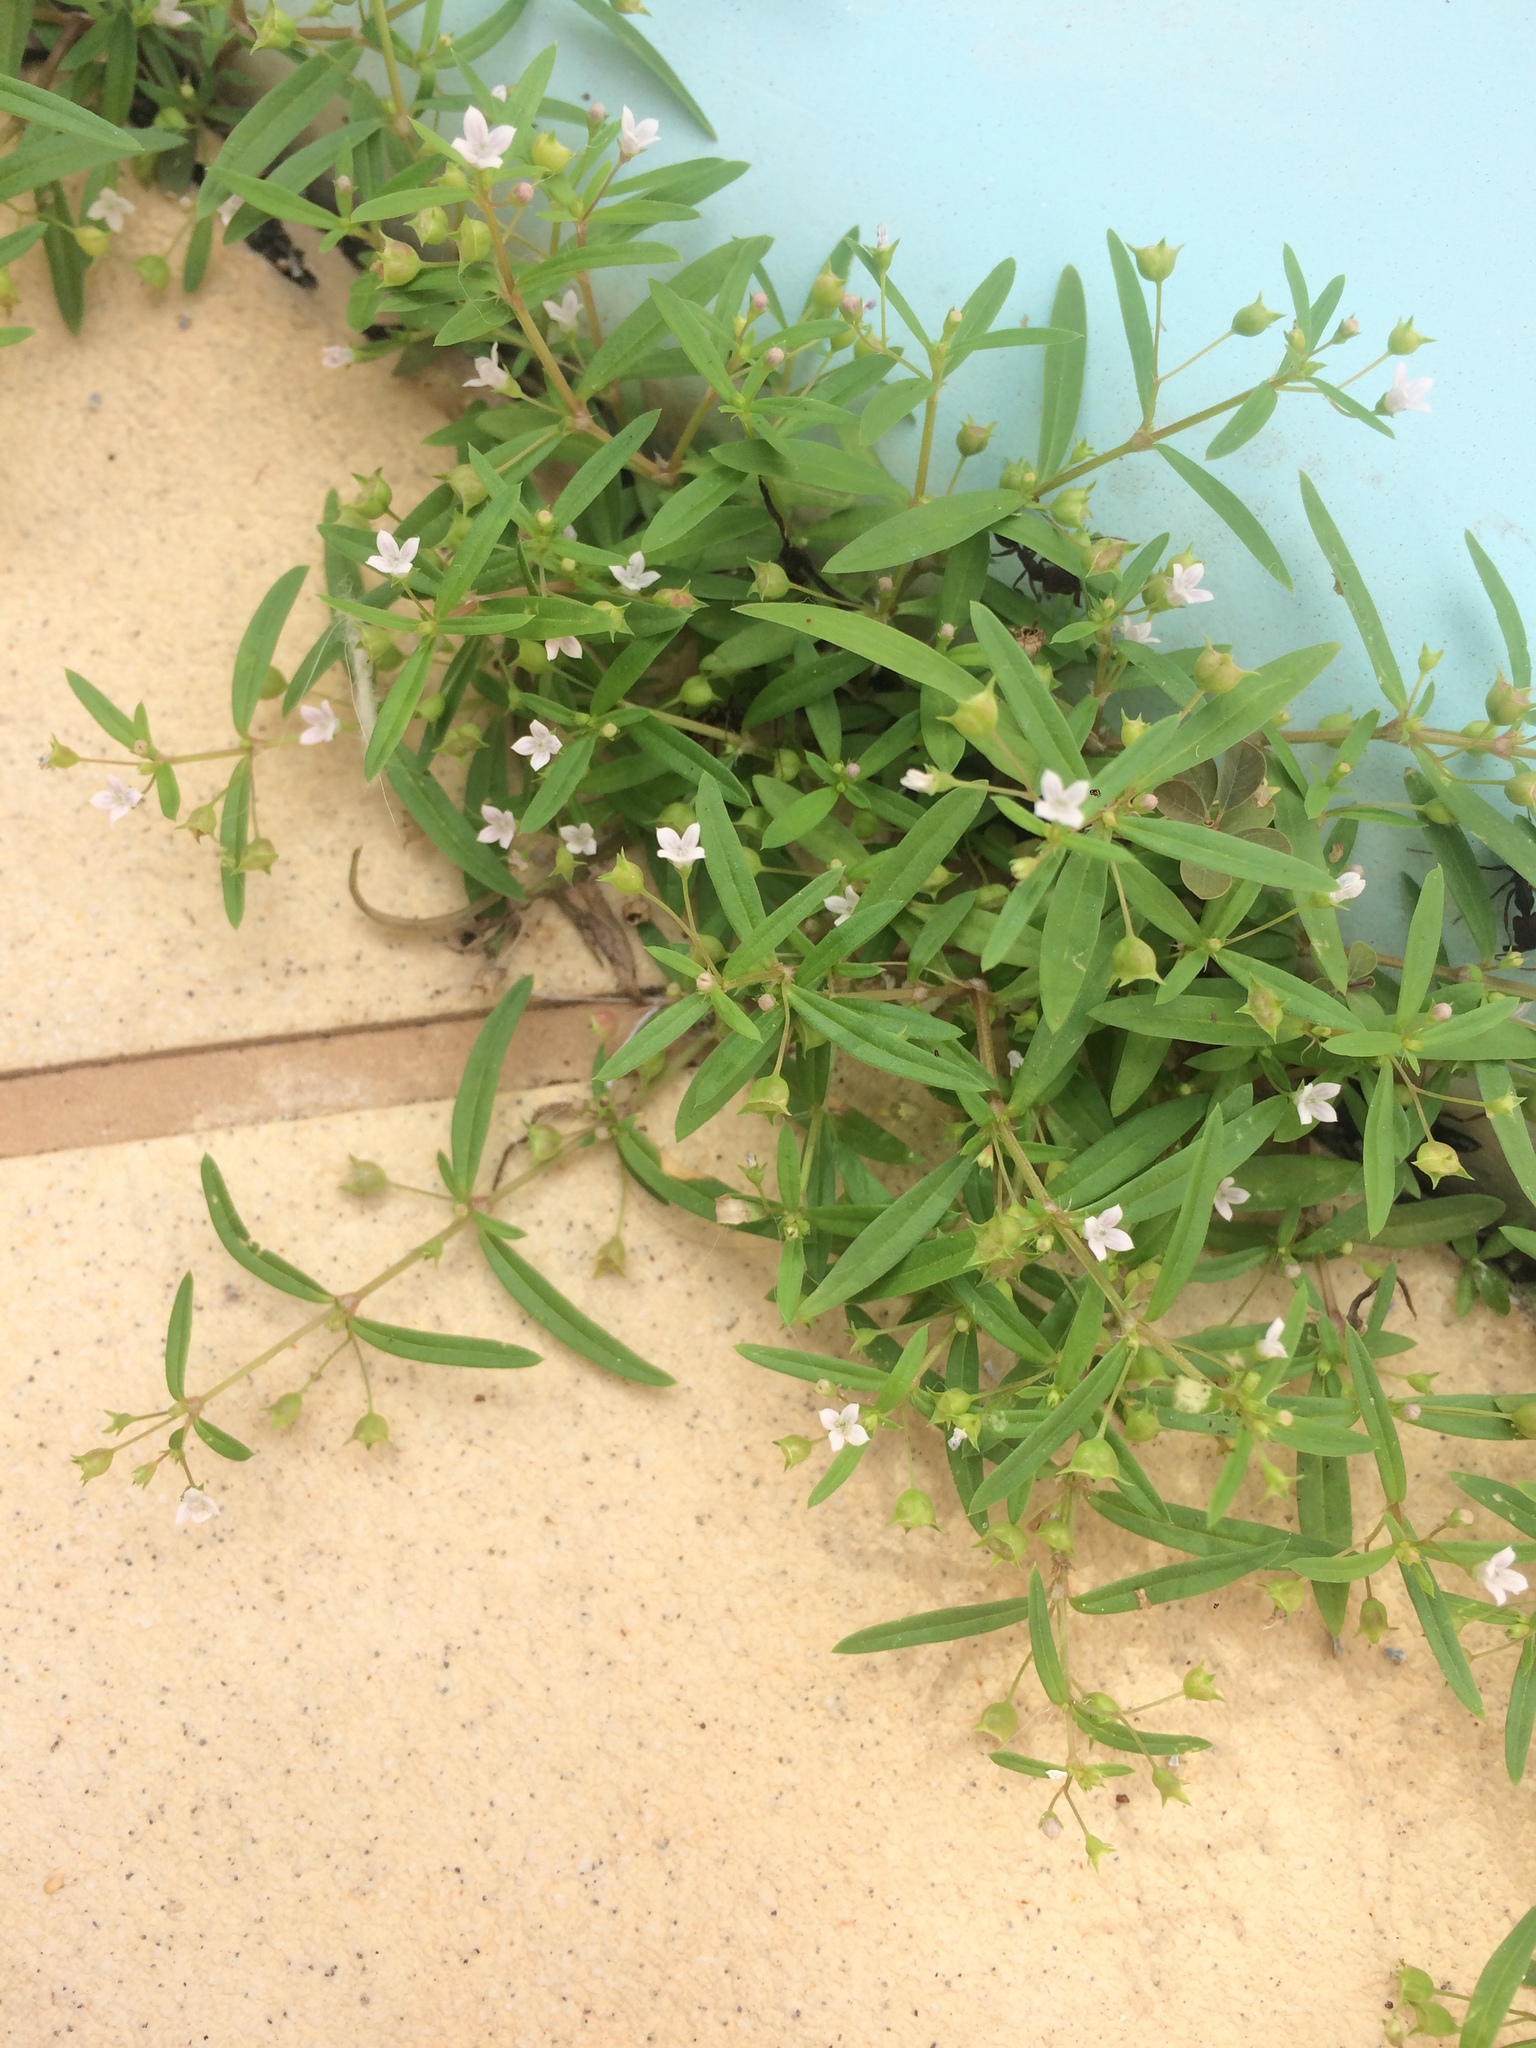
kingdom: Plantae
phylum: Tracheophyta
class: Magnoliopsida
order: Gentianales
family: Rubiaceae
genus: Oldenlandia
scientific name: Oldenlandia corymbosa
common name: Flat-top mille graines
